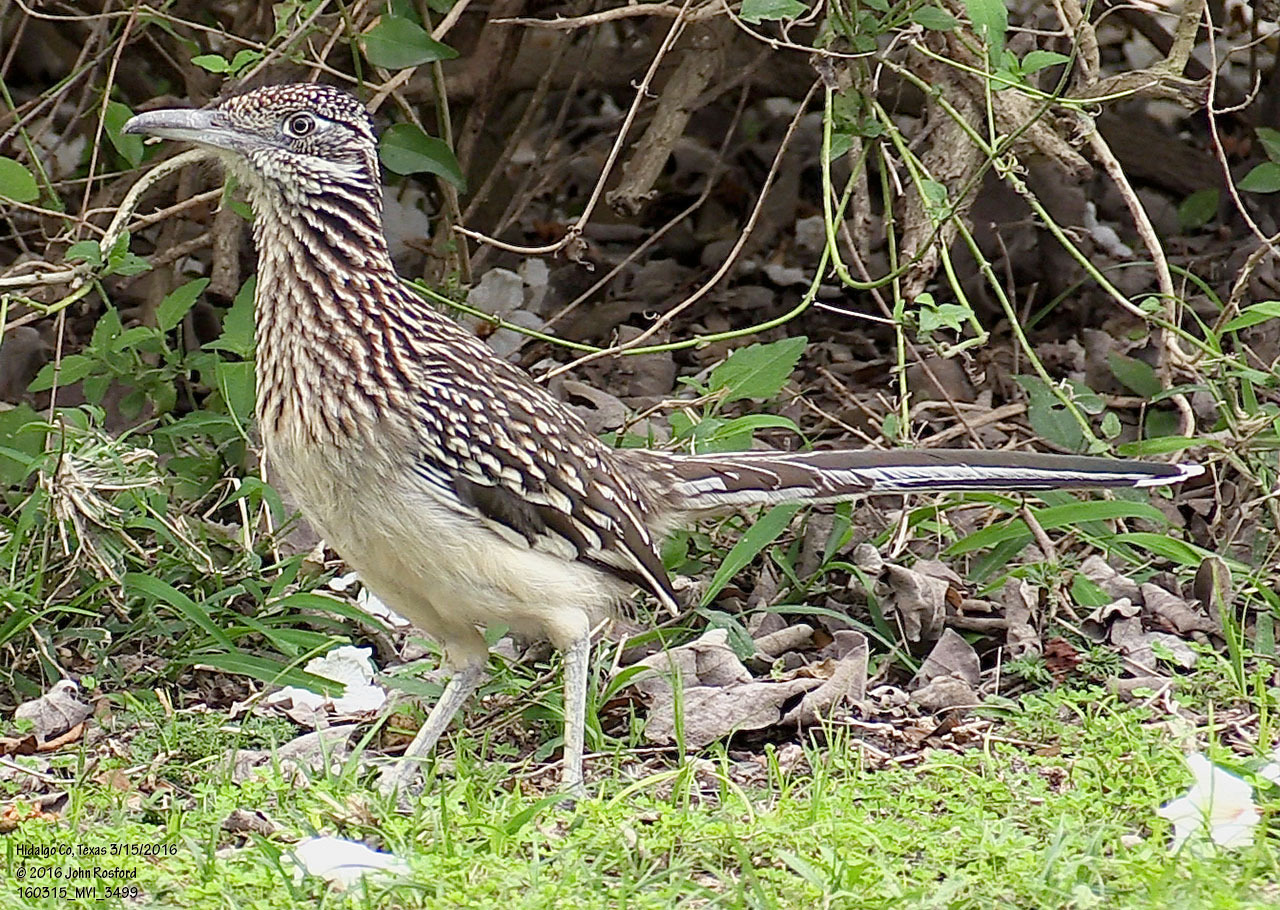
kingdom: Animalia
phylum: Chordata
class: Aves
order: Cuculiformes
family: Cuculidae
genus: Geococcyx
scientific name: Geococcyx californianus
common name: Greater roadrunner
